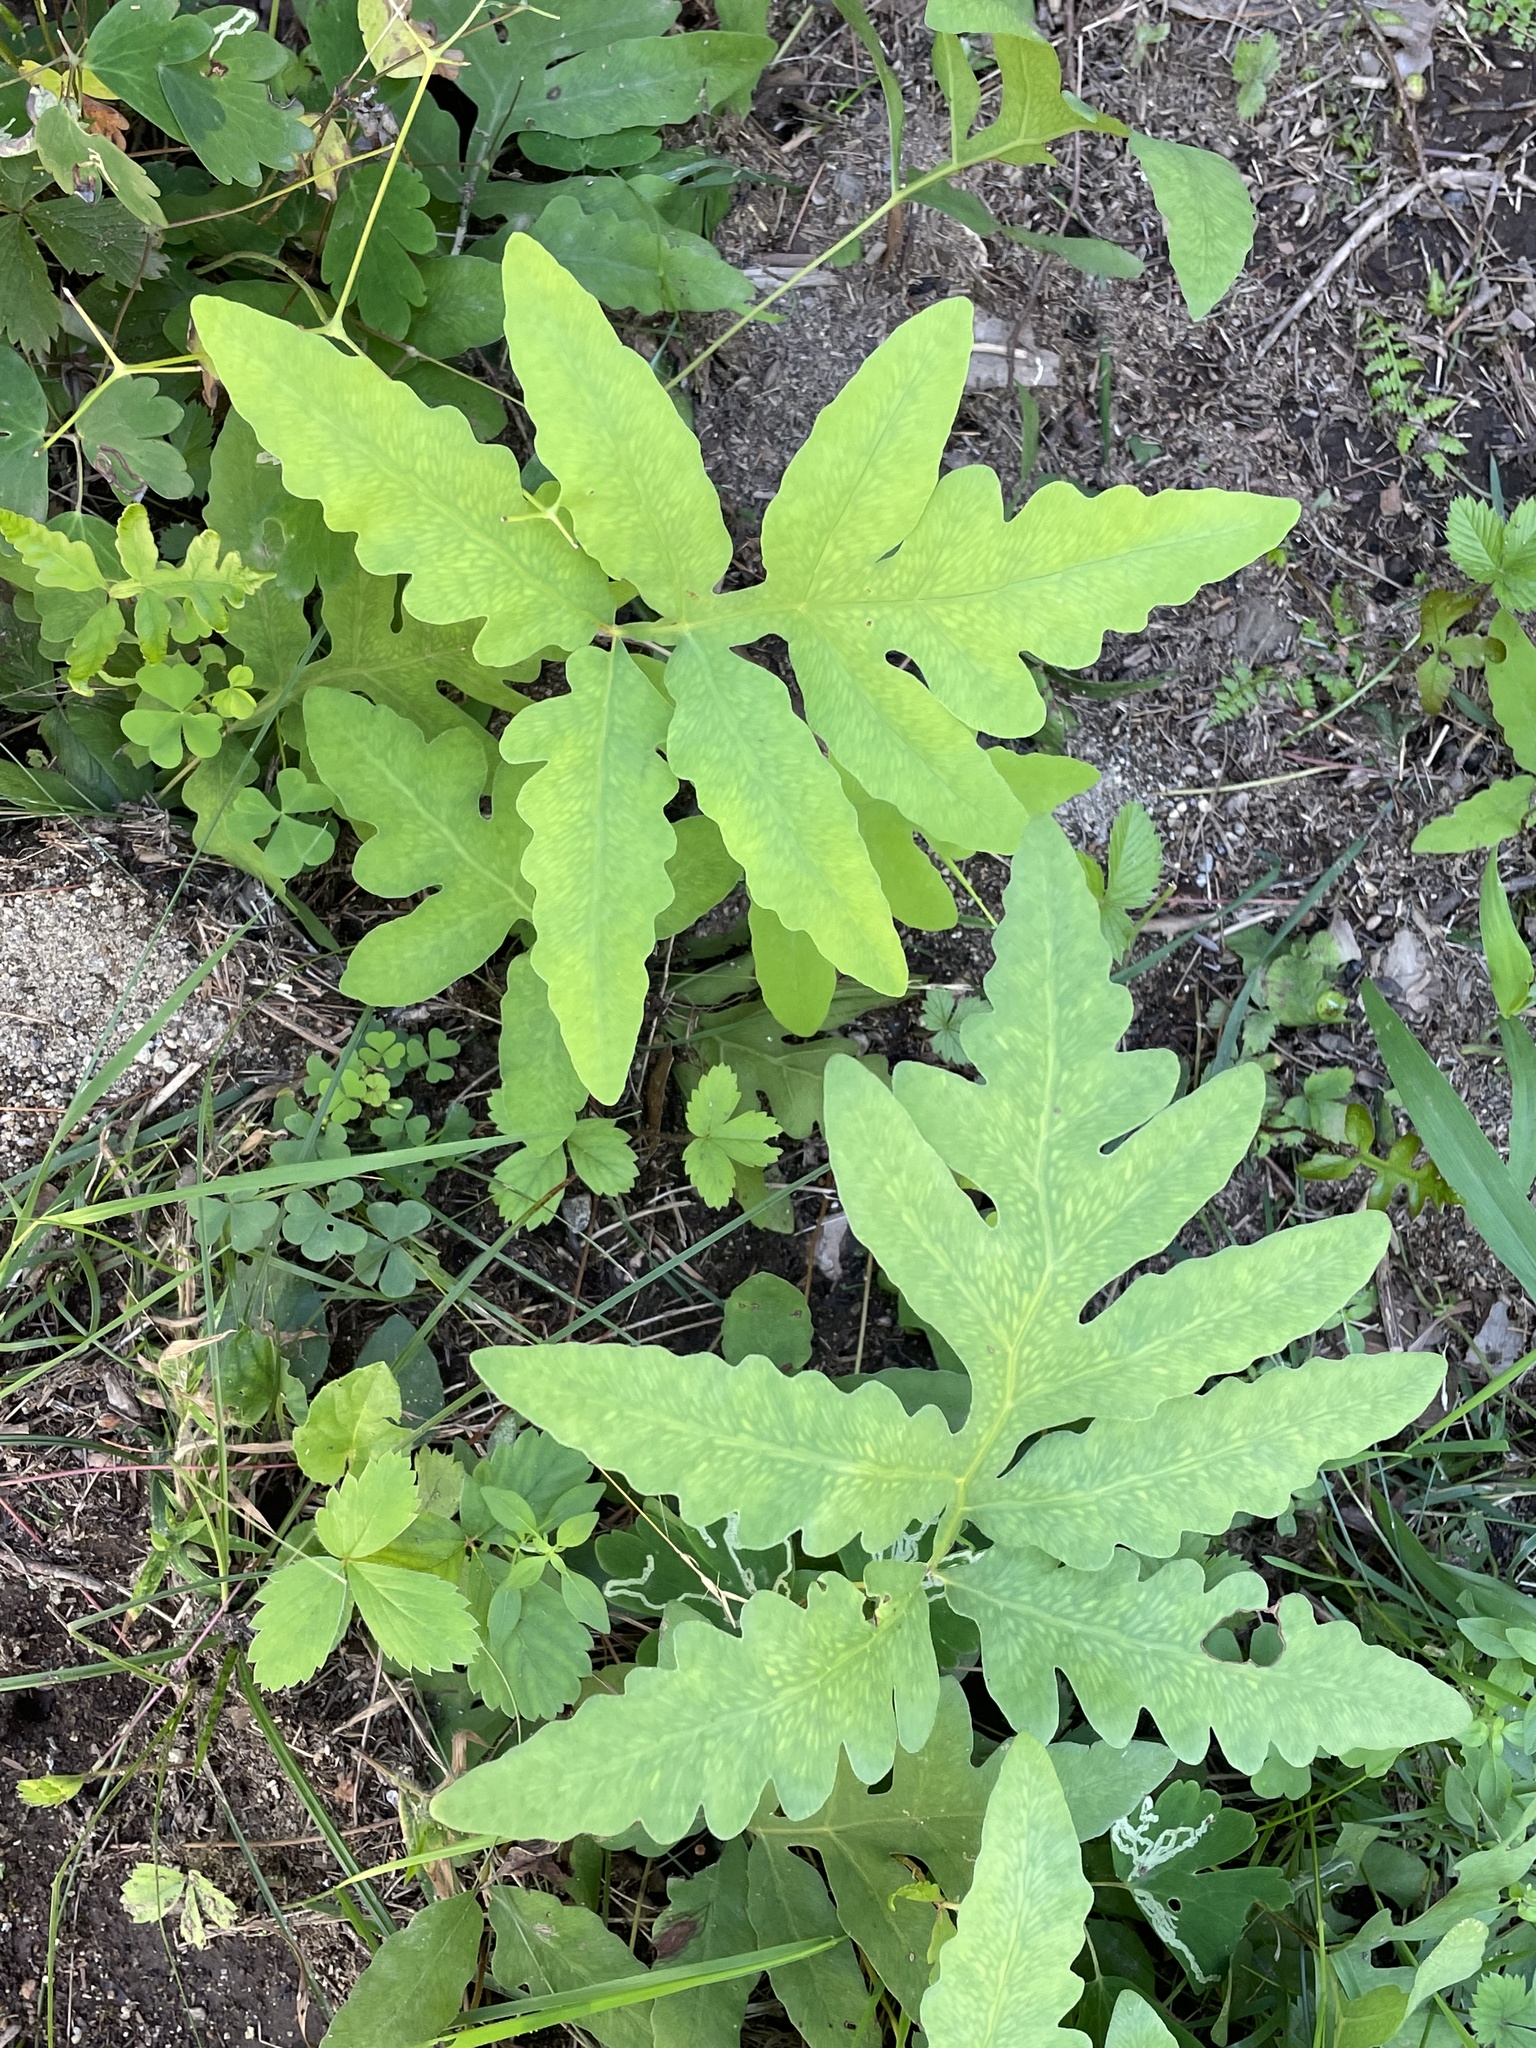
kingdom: Plantae
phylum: Tracheophyta
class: Polypodiopsida
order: Polypodiales
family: Onocleaceae
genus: Onoclea
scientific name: Onoclea sensibilis
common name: Sensitive fern
